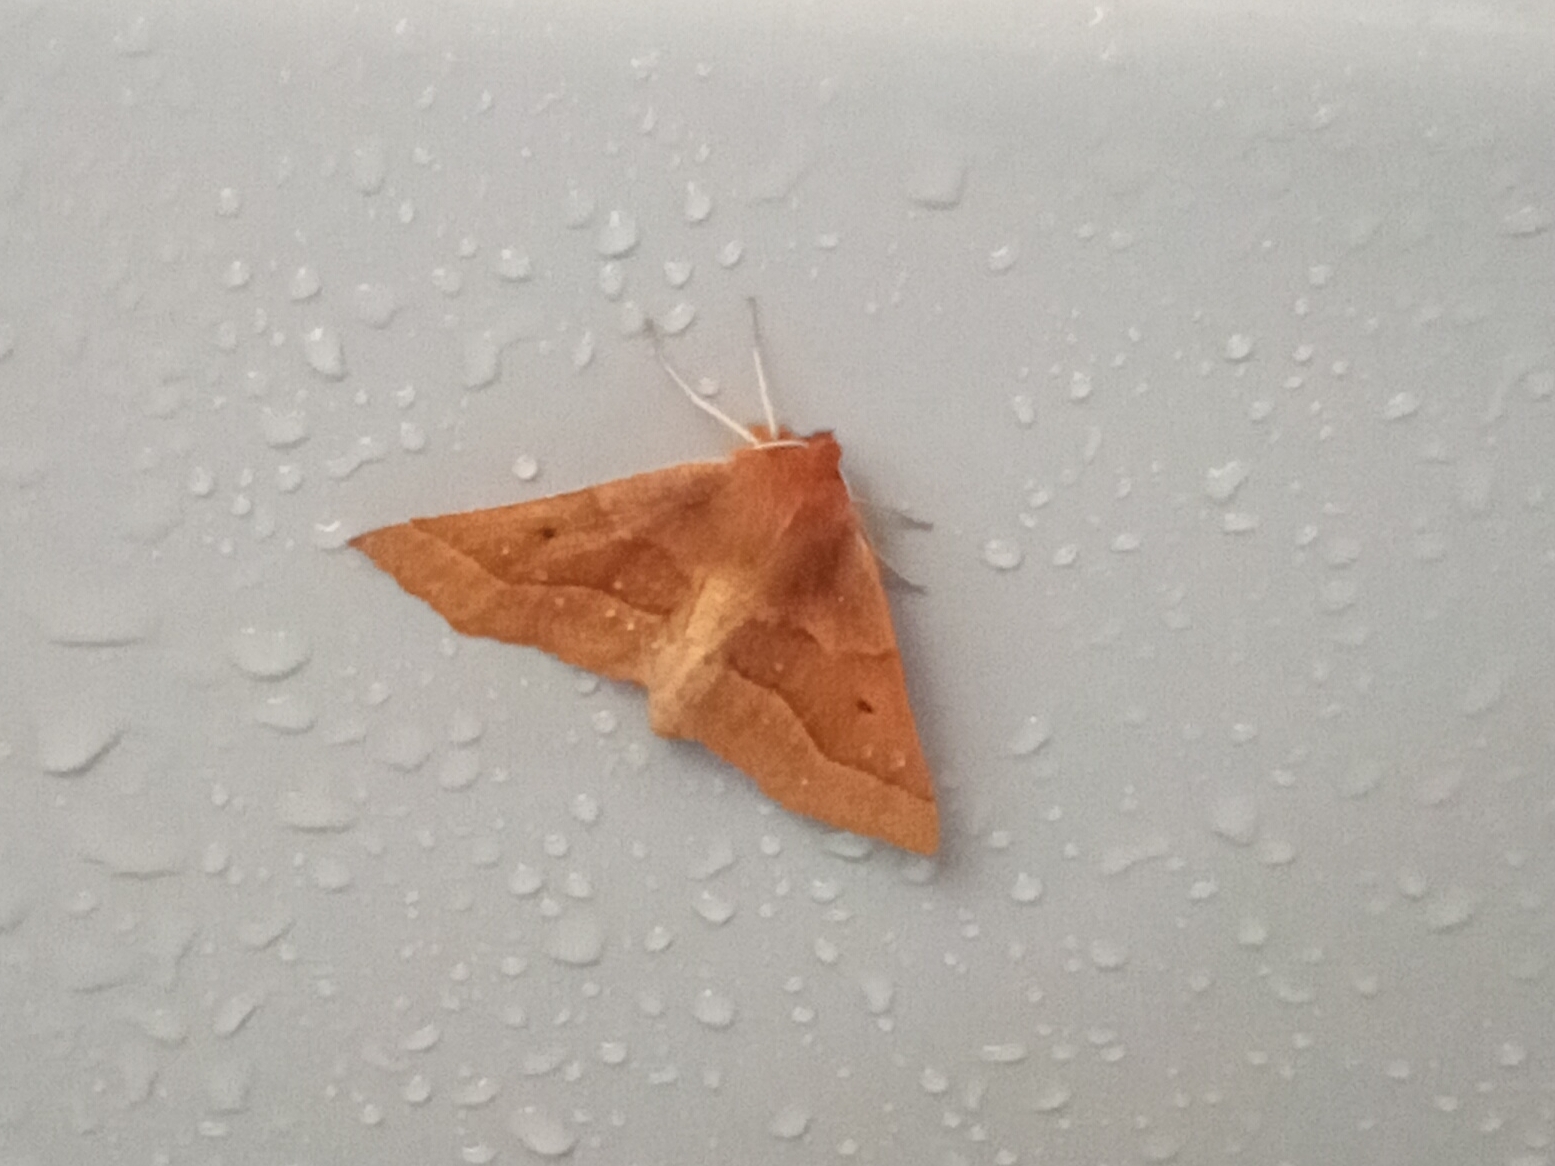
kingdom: Animalia
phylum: Arthropoda
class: Insecta
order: Lepidoptera
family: Geometridae
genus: Crocallis
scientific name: Crocallis tusciaria
